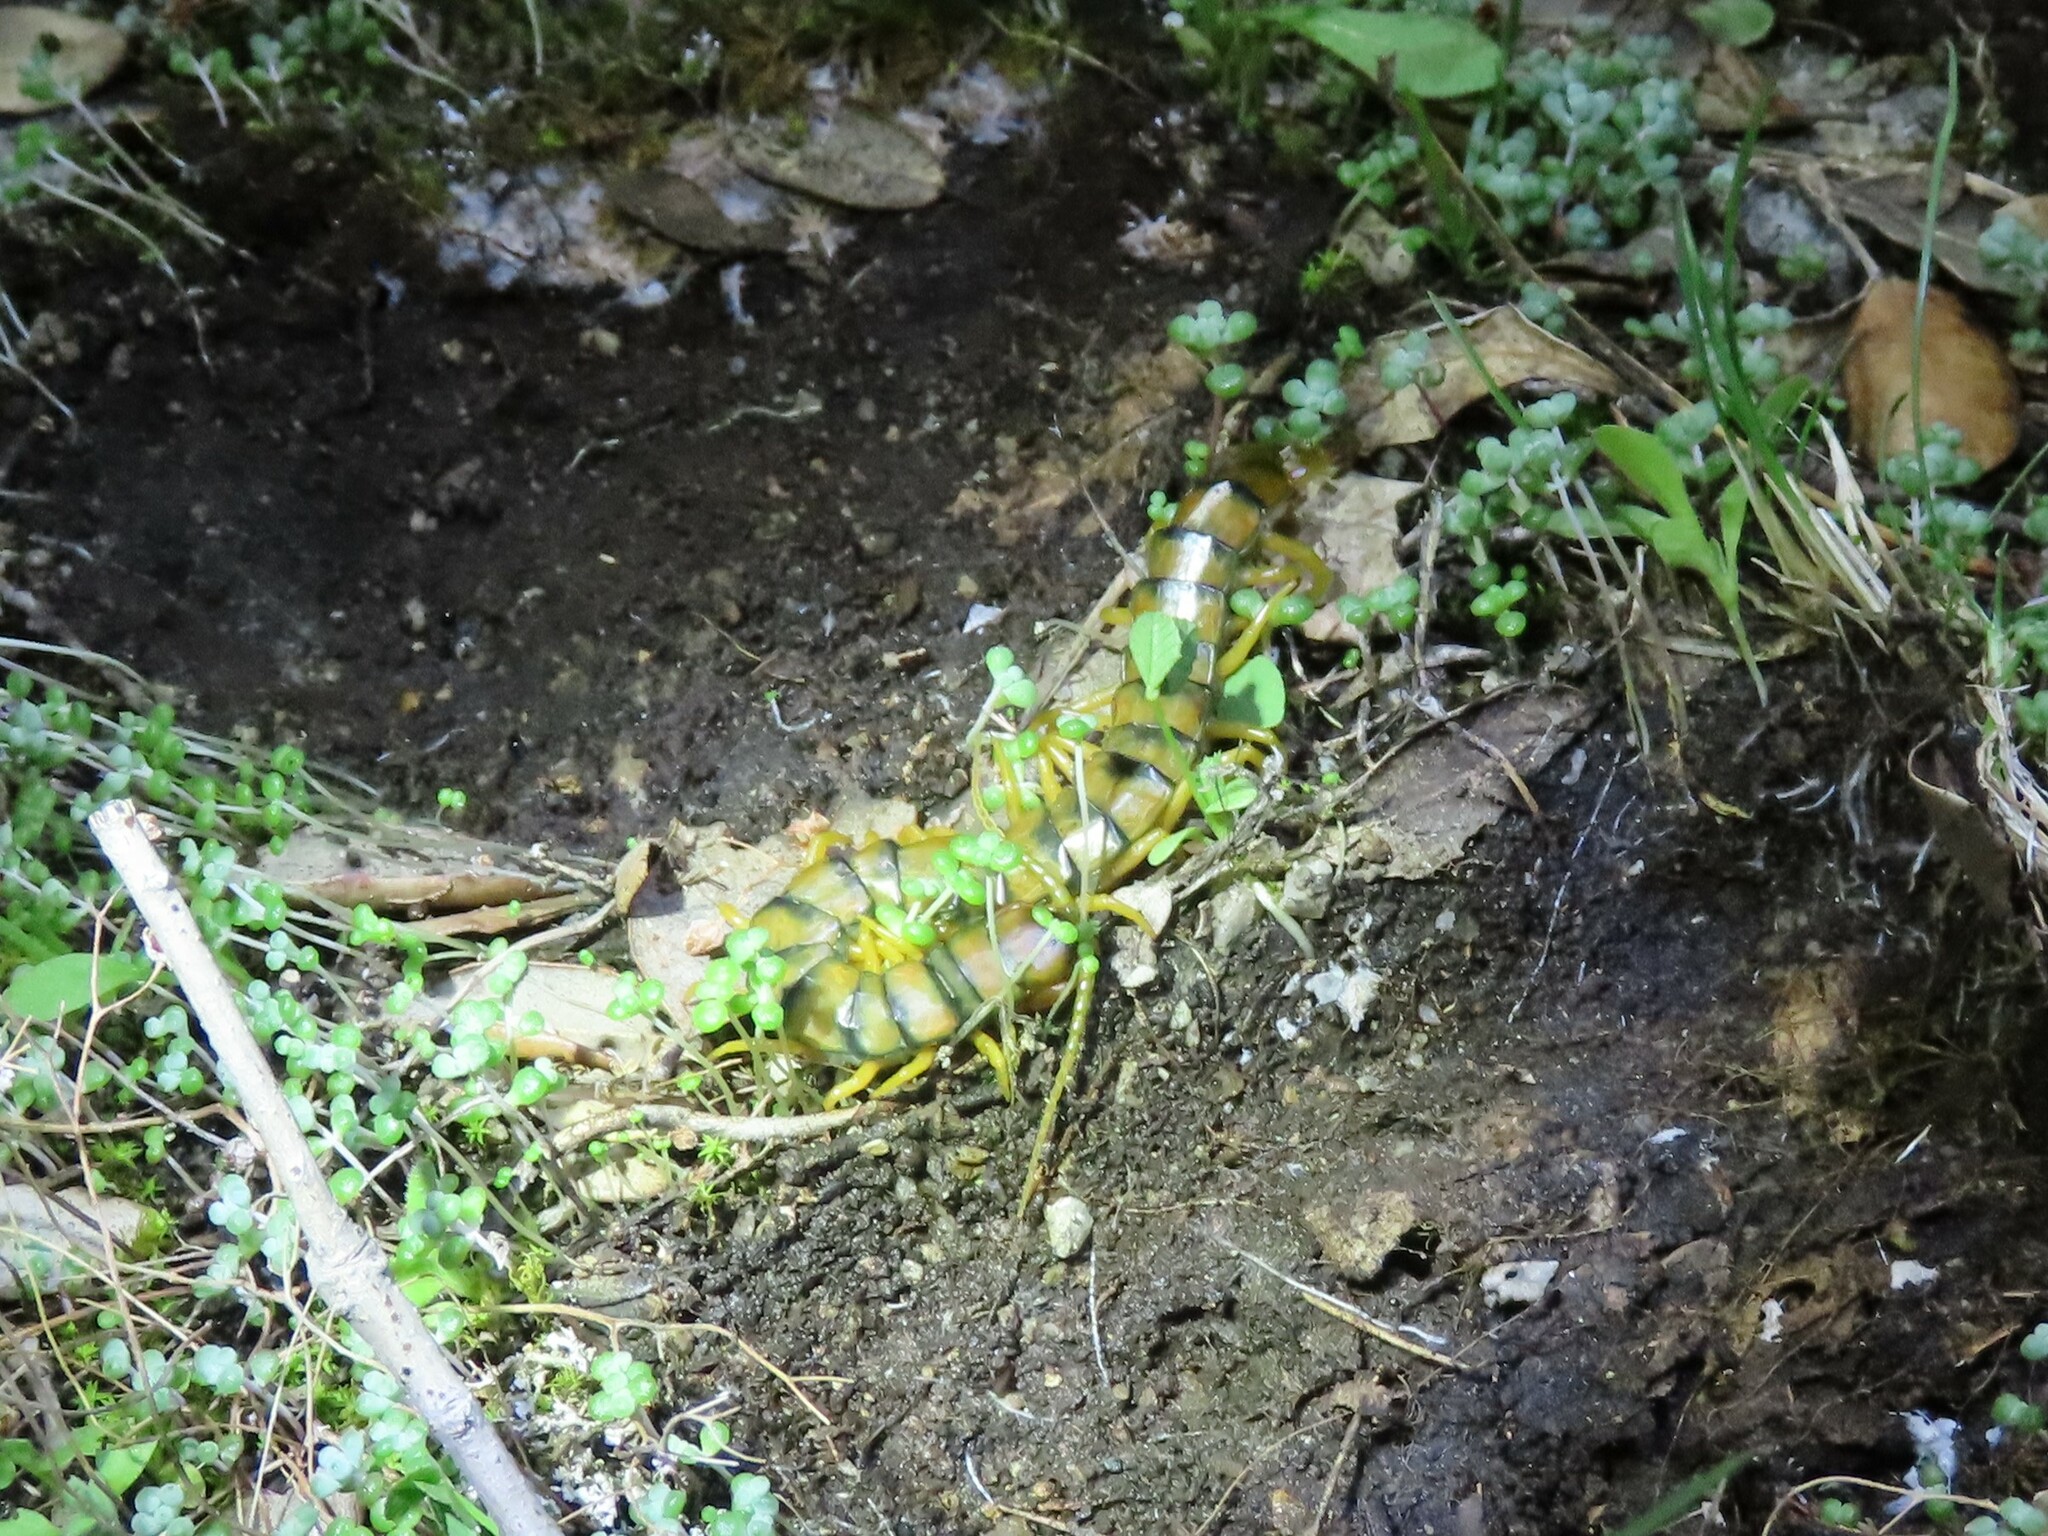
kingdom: Animalia
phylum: Arthropoda
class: Chilopoda
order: Scolopendromorpha
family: Scolopendridae
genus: Scolopendra
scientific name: Scolopendra cingulata
